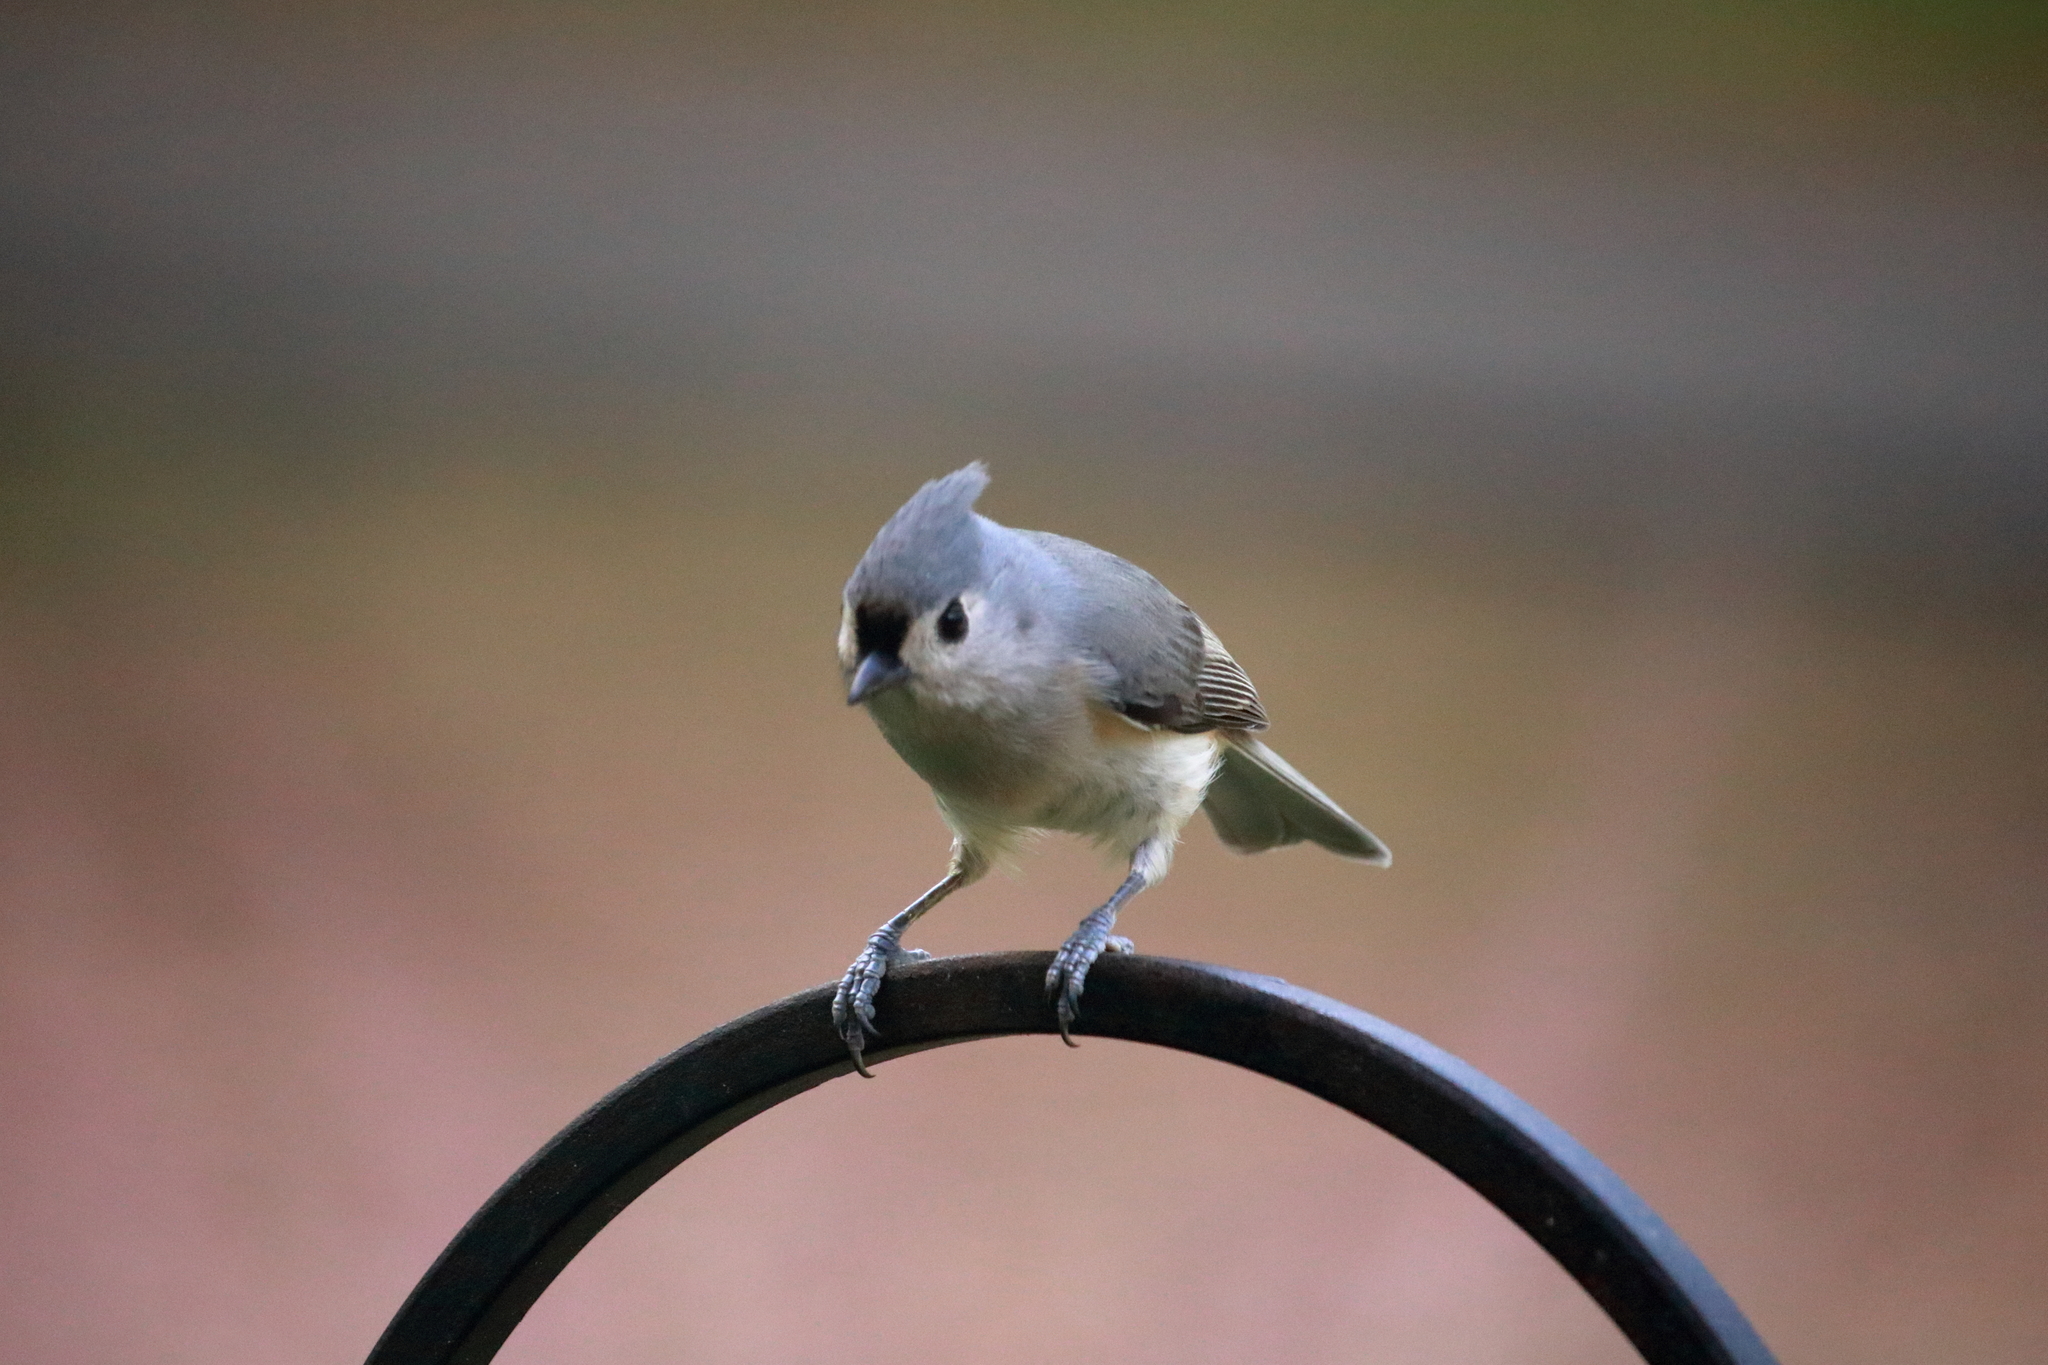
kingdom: Animalia
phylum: Chordata
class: Aves
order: Passeriformes
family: Paridae
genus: Baeolophus
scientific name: Baeolophus bicolor
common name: Tufted titmouse
